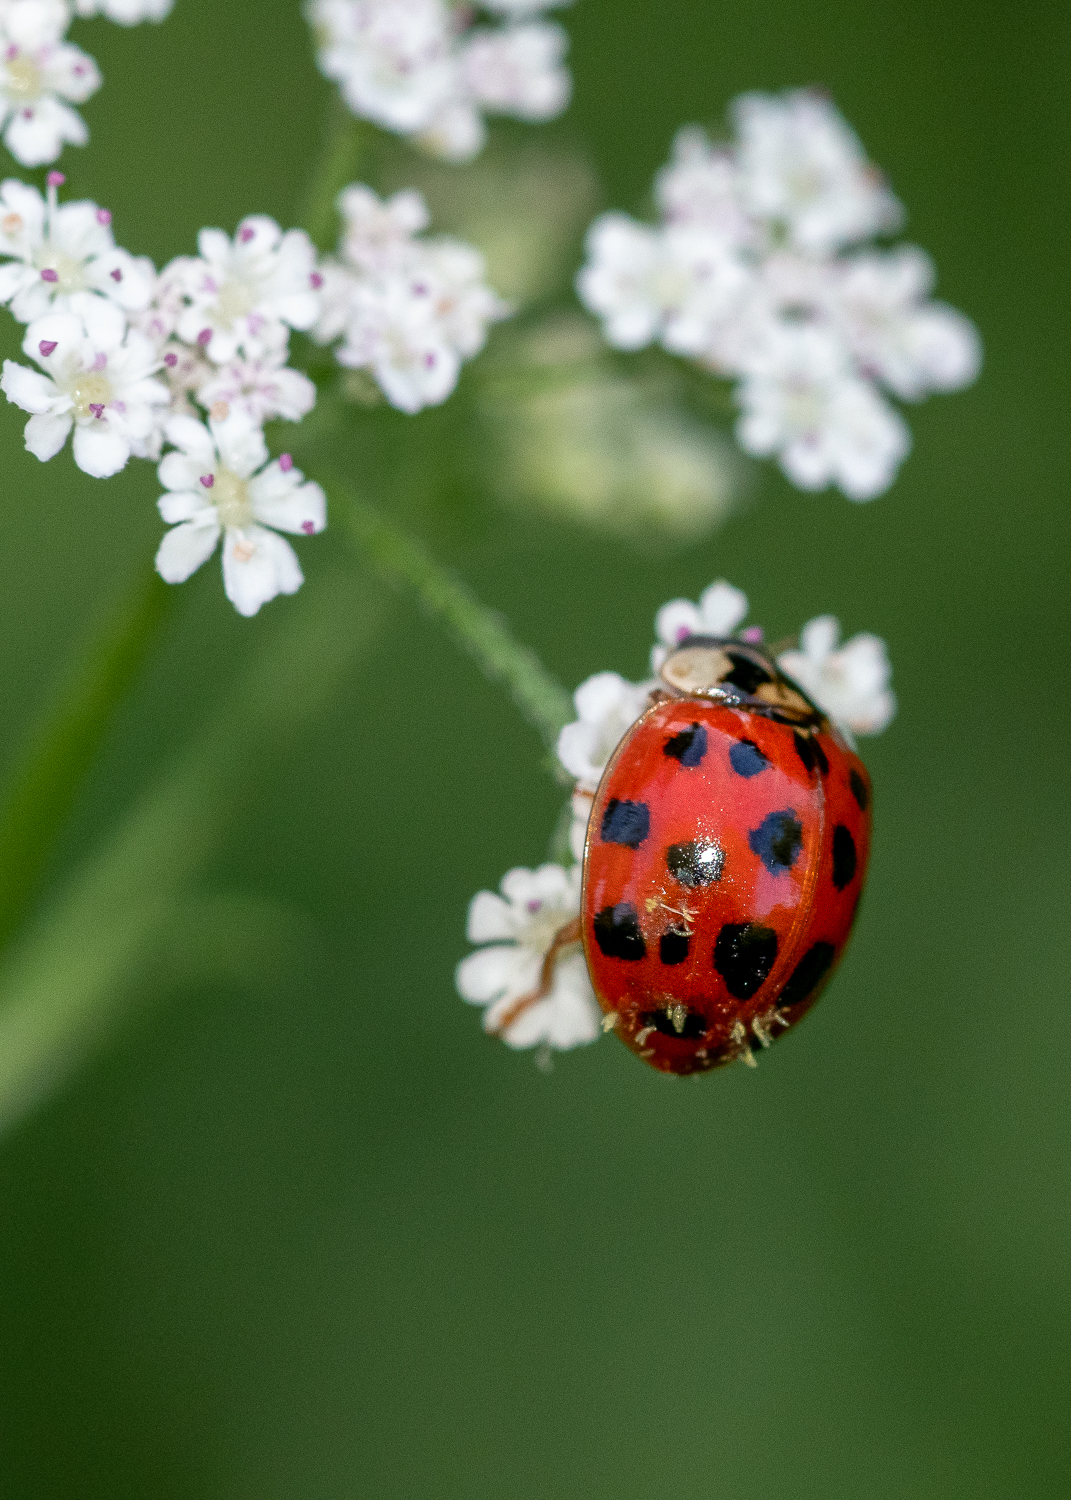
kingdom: Animalia
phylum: Arthropoda
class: Insecta
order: Coleoptera
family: Coccinellidae
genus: Harmonia
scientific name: Harmonia axyridis
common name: Harlequin ladybird
